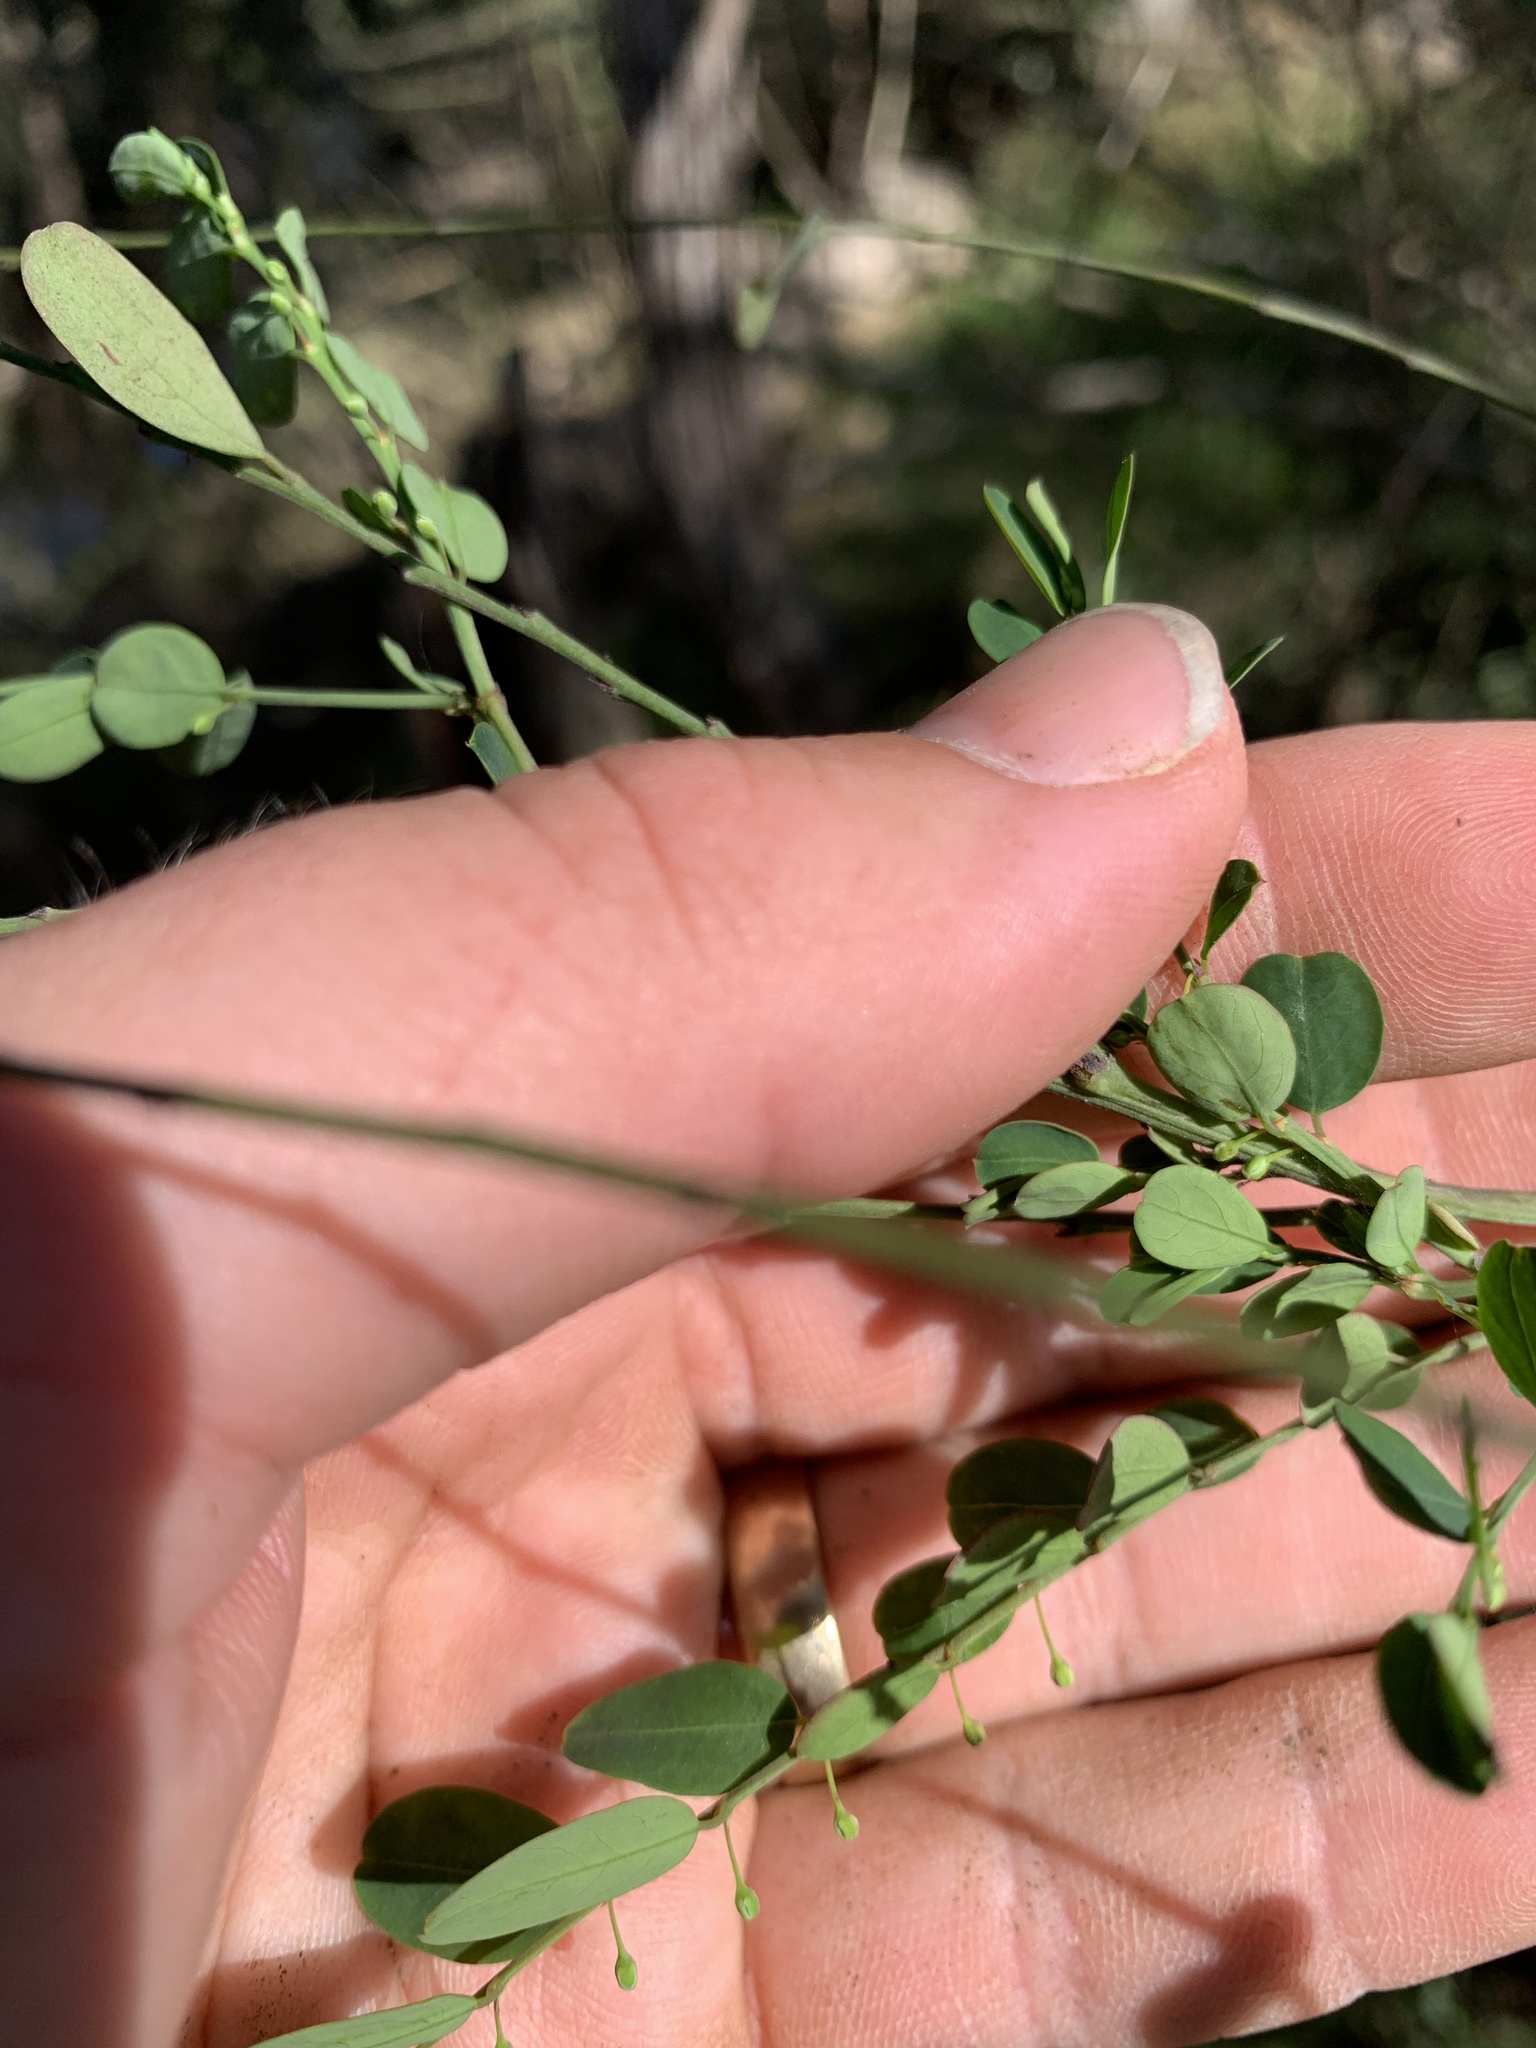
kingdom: Plantae
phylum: Tracheophyta
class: Magnoliopsida
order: Malpighiales
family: Phyllanthaceae
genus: Phyllanthus
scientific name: Phyllanthus gunnii
